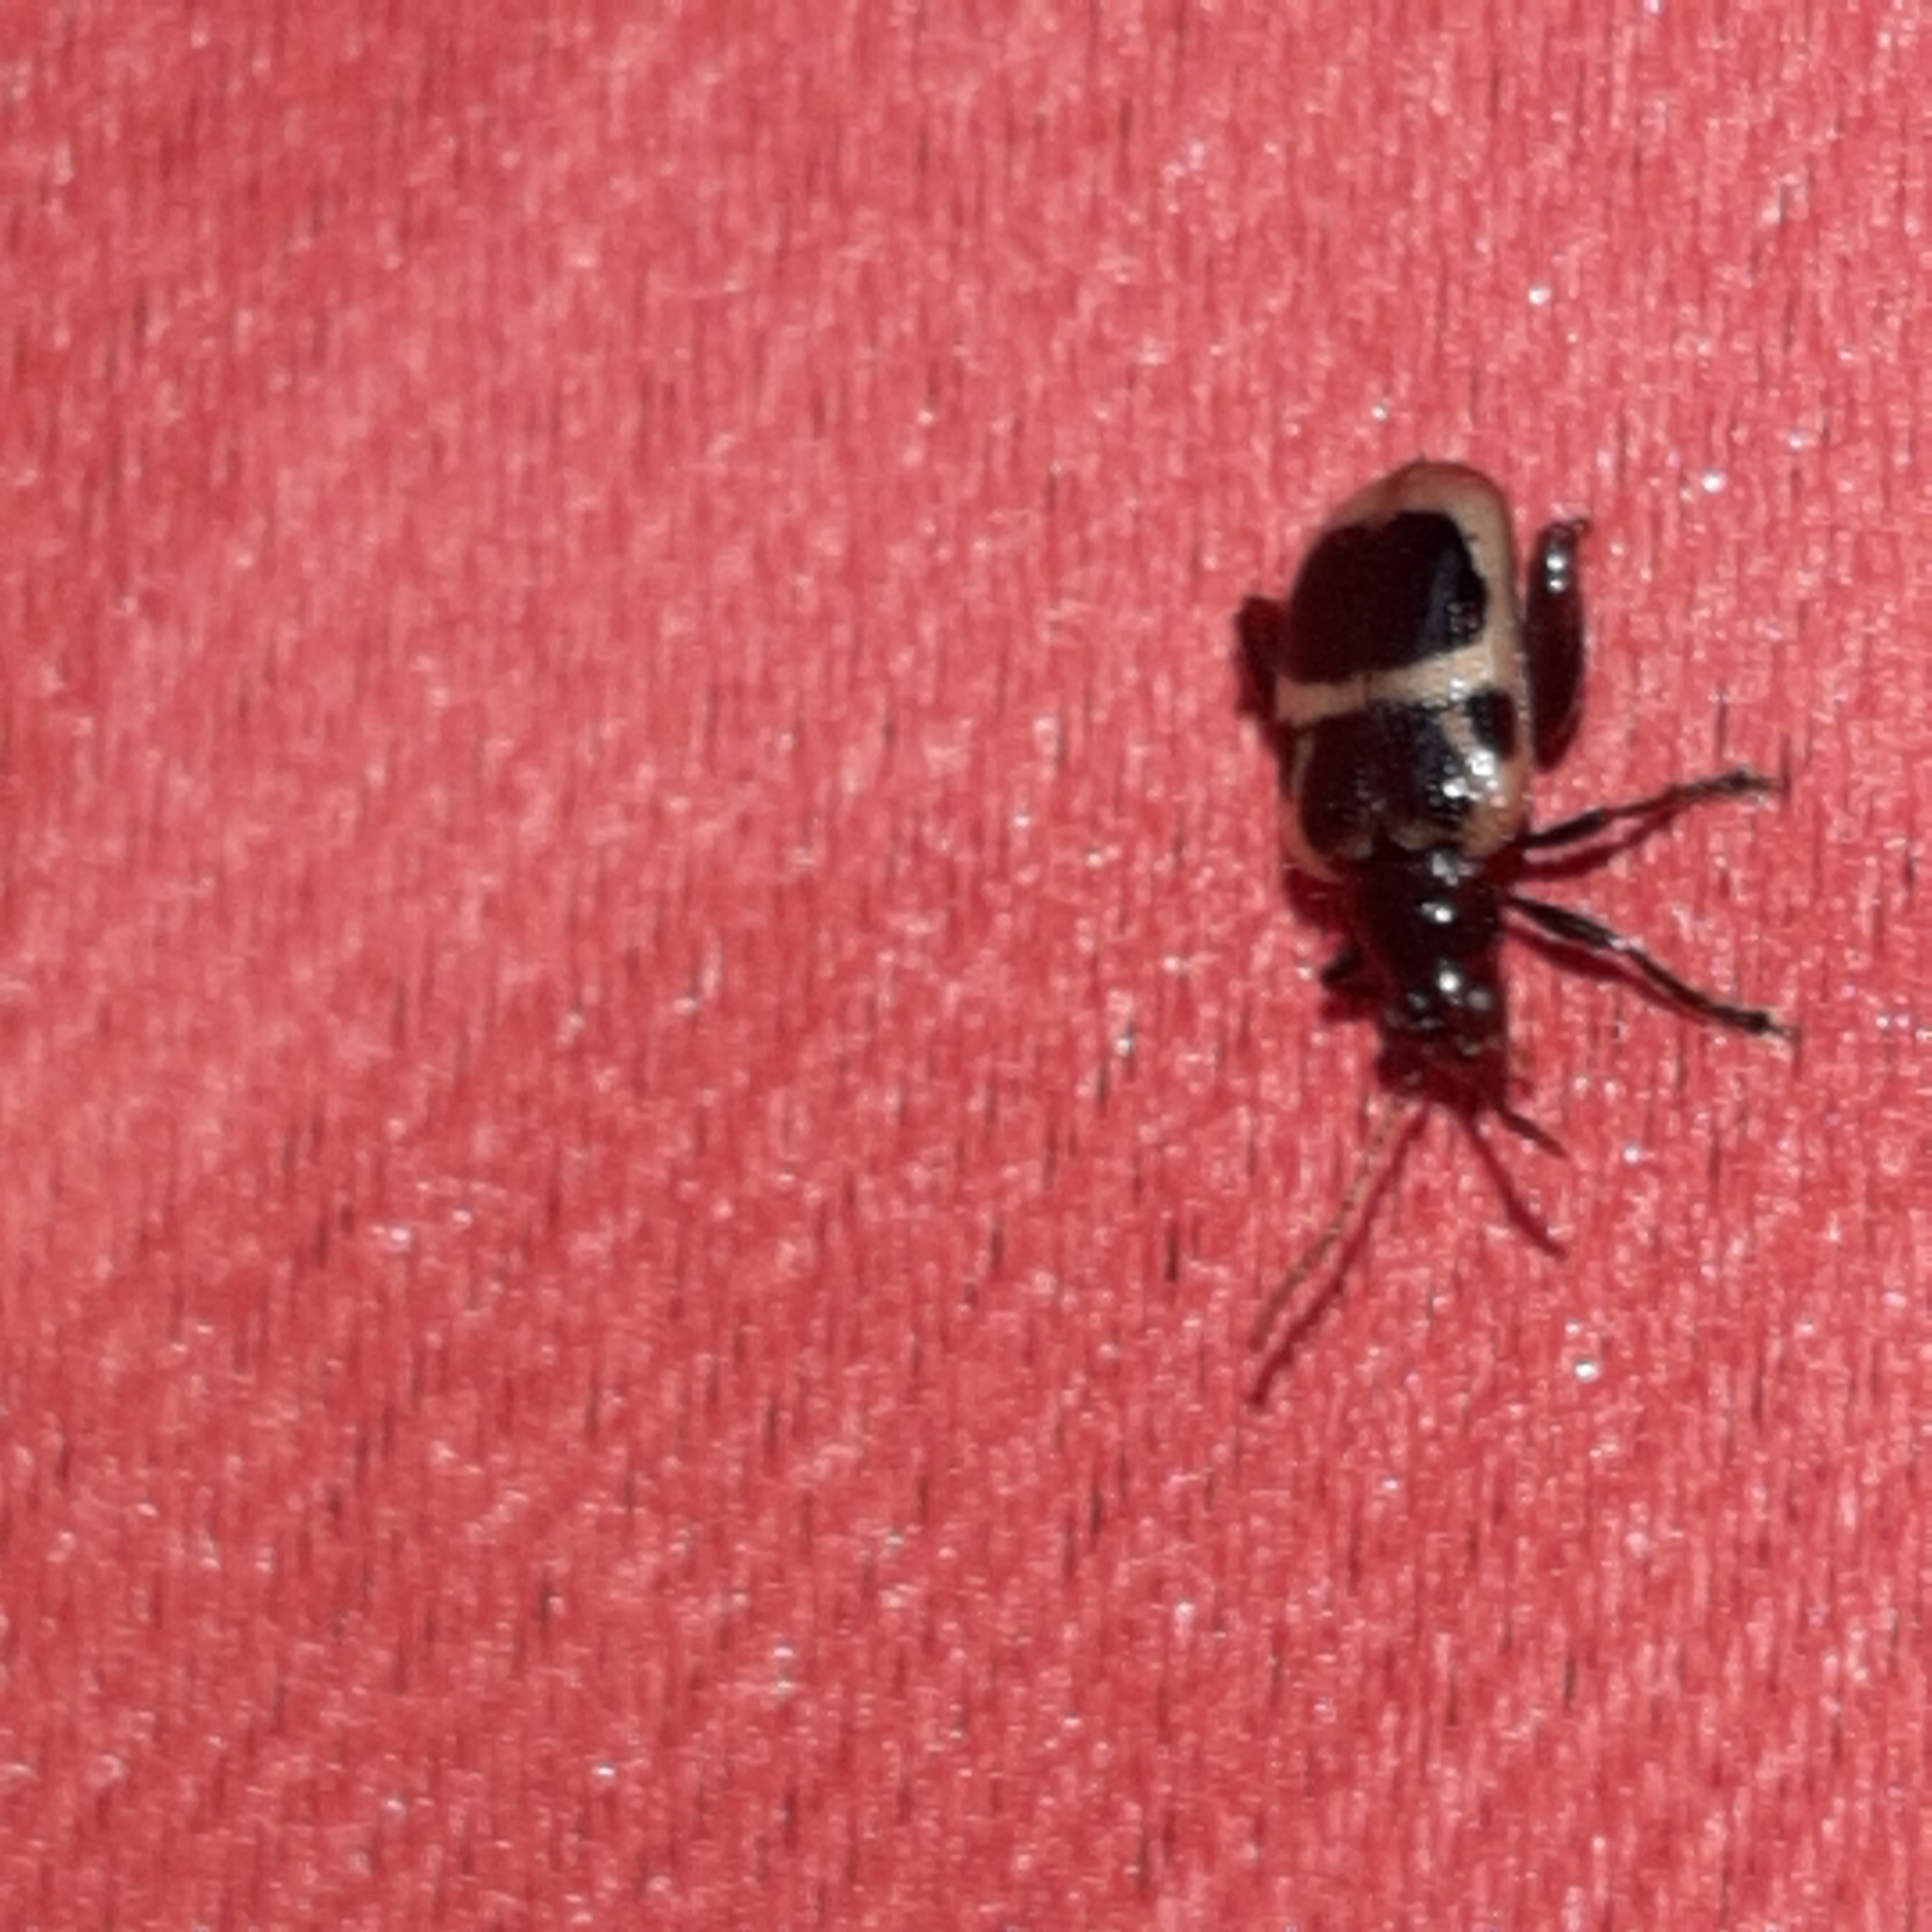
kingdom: Animalia
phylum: Arthropoda
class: Insecta
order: Coleoptera
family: Chrysomelidae
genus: Allochroma
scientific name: Allochroma
